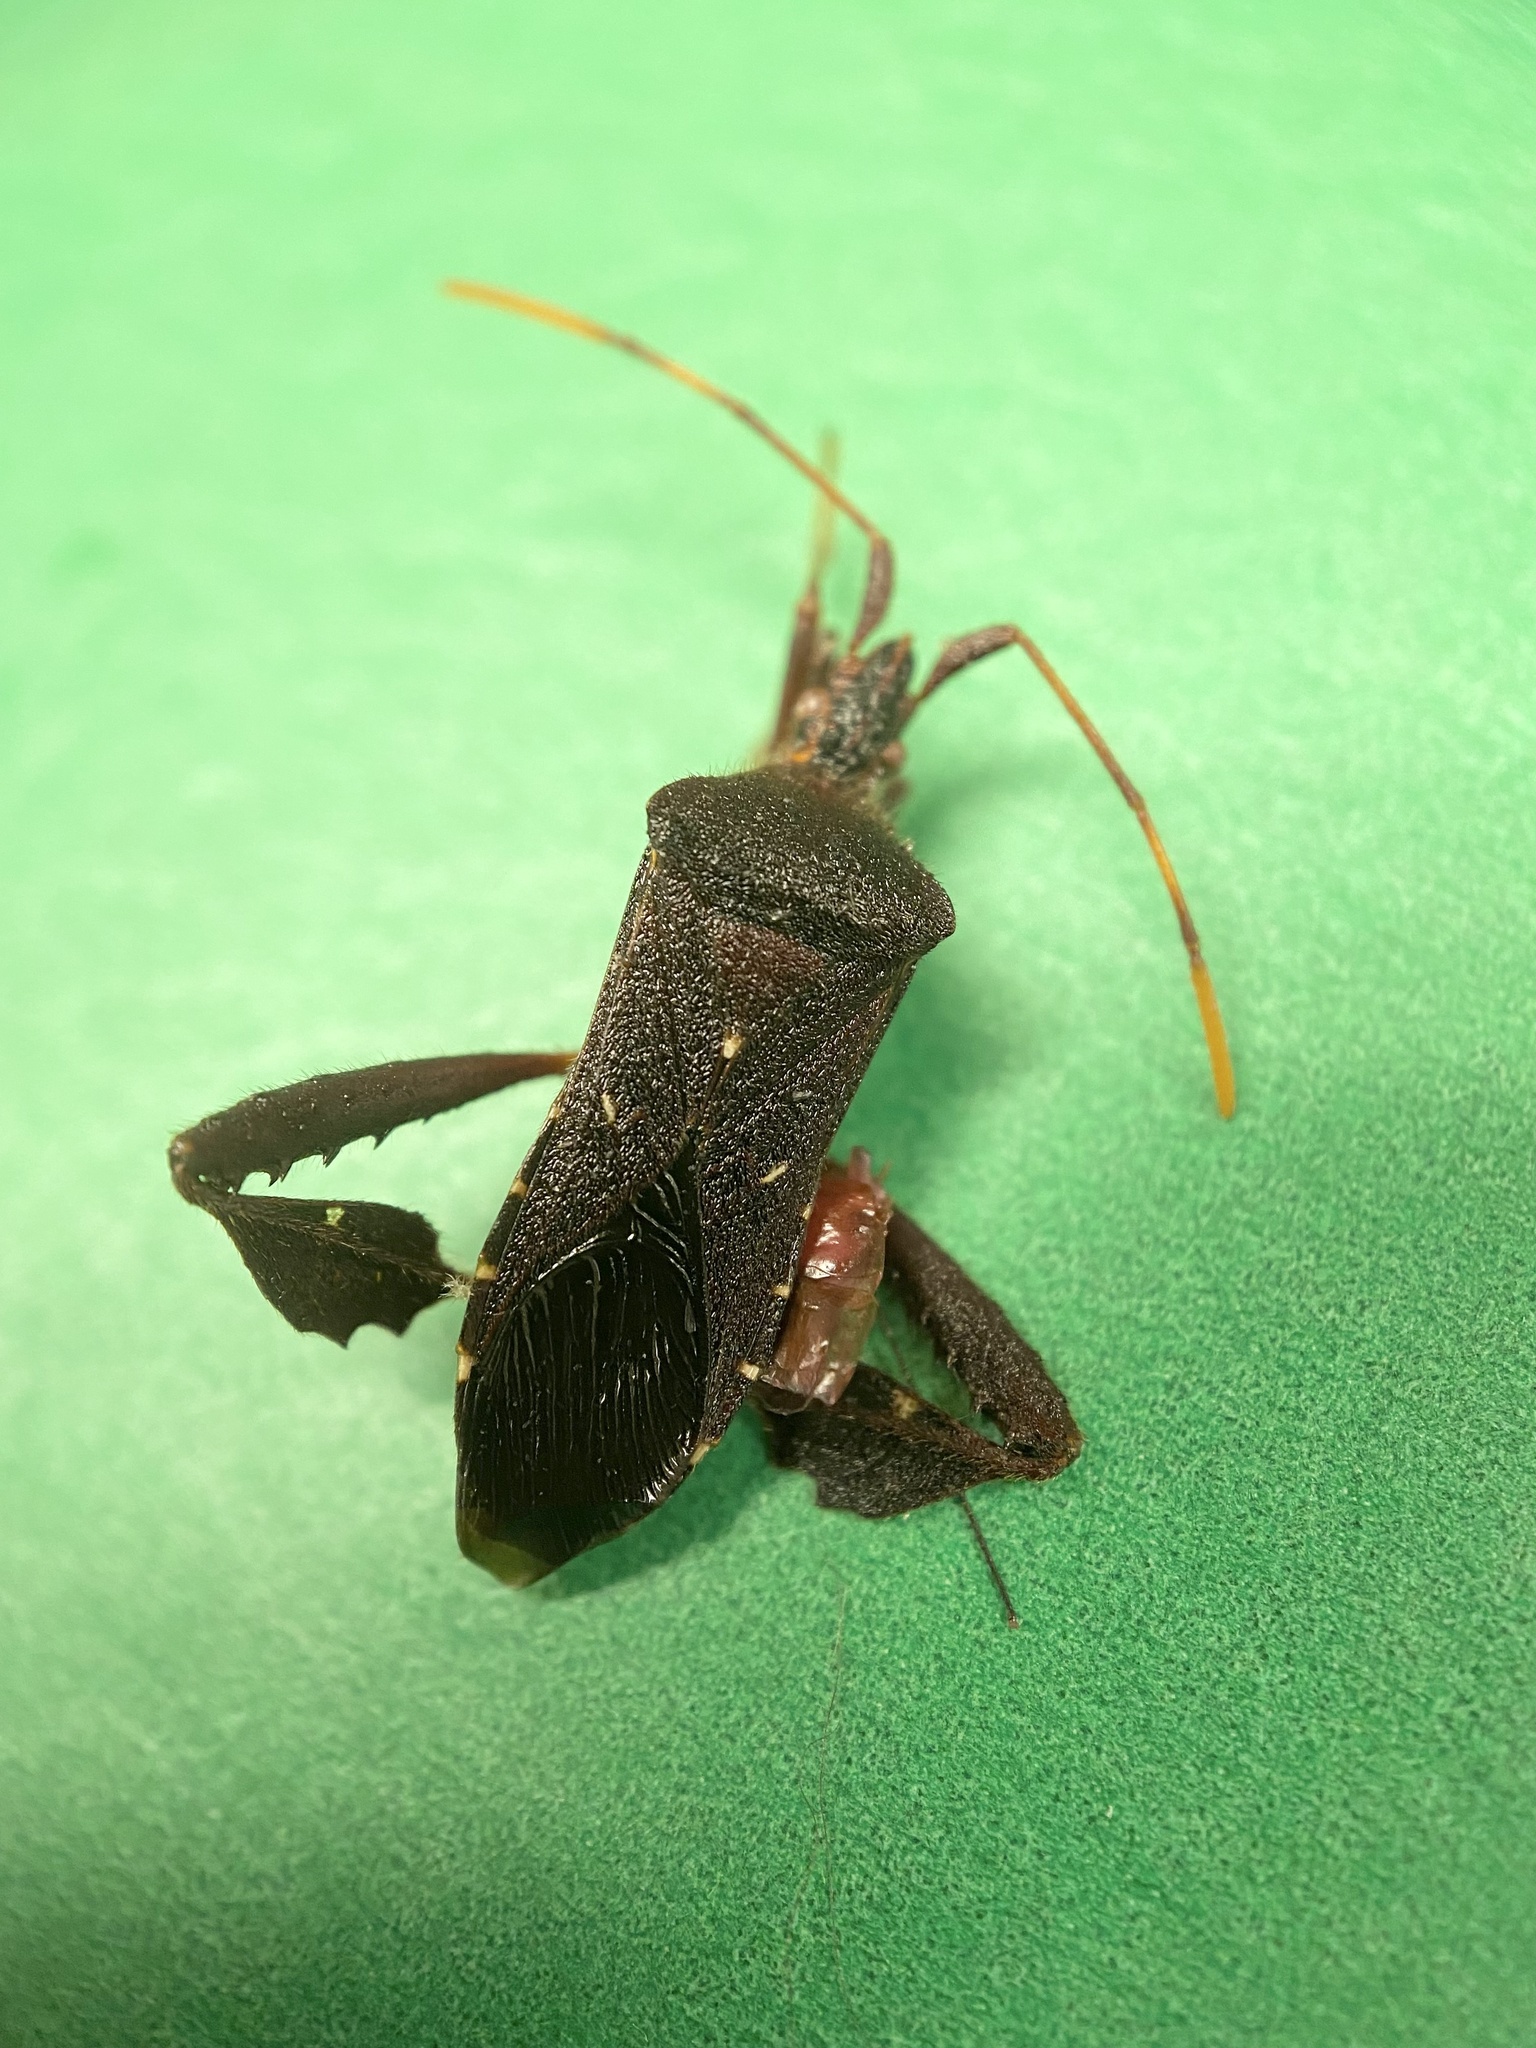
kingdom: Animalia
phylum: Arthropoda
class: Insecta
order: Hemiptera
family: Coreidae
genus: Leptoglossus
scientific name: Leptoglossus oppositus
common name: Northern leaf-footed bug
